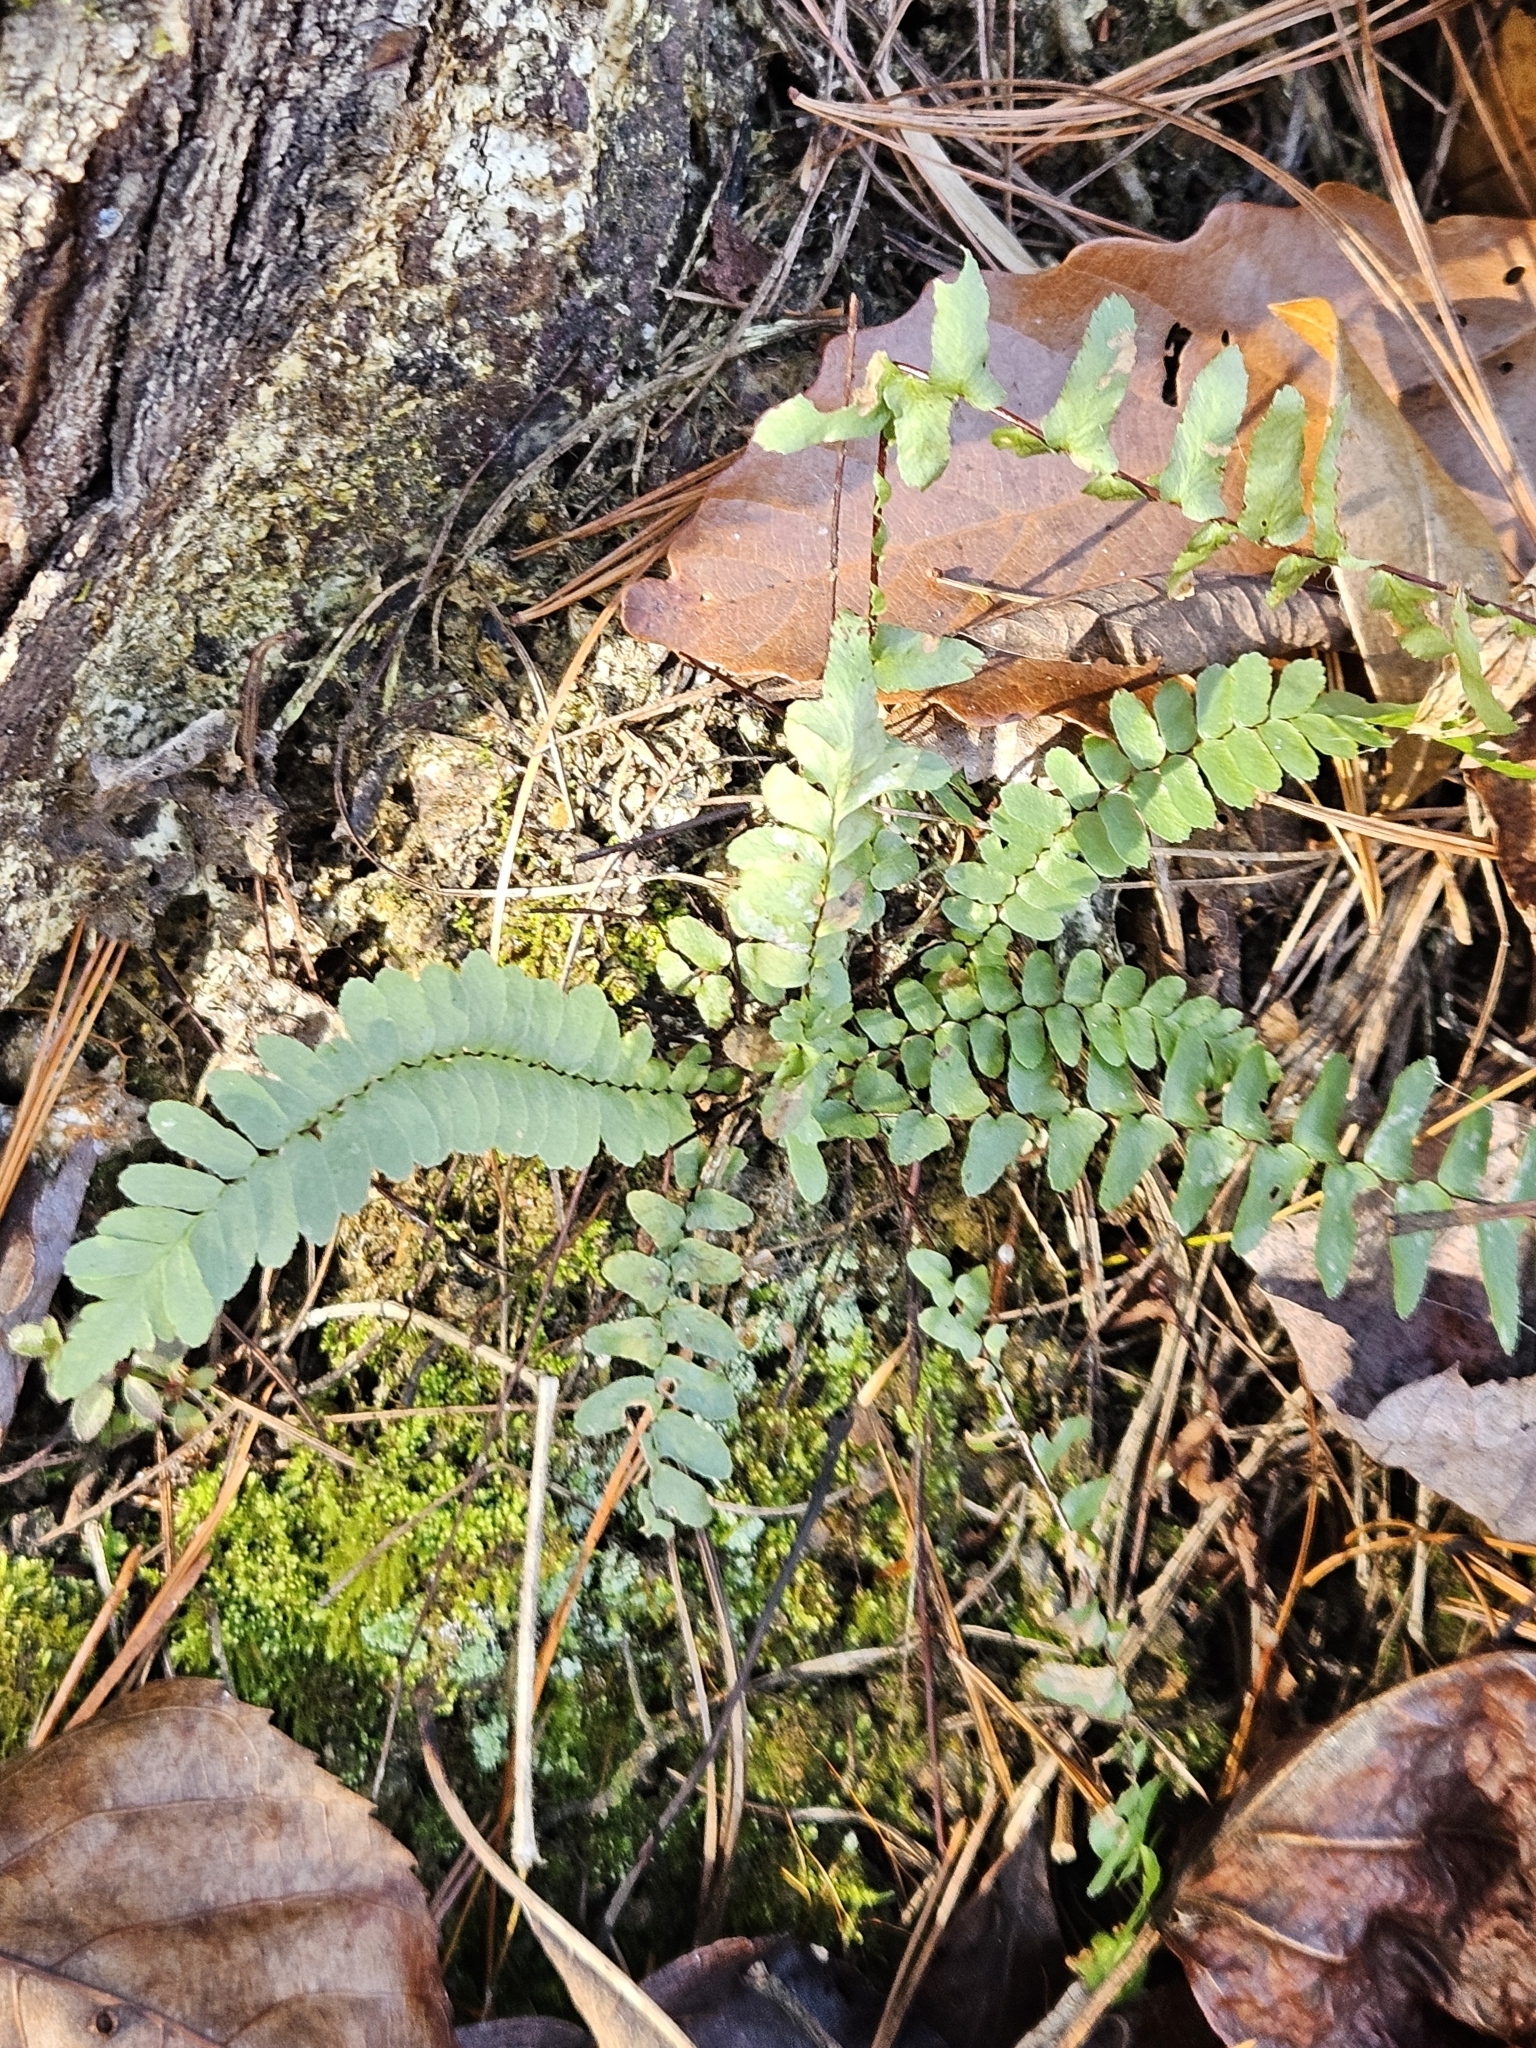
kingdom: Plantae
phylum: Tracheophyta
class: Polypodiopsida
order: Polypodiales
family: Aspleniaceae
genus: Asplenium
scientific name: Asplenium platyneuron
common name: Ebony spleenwort
